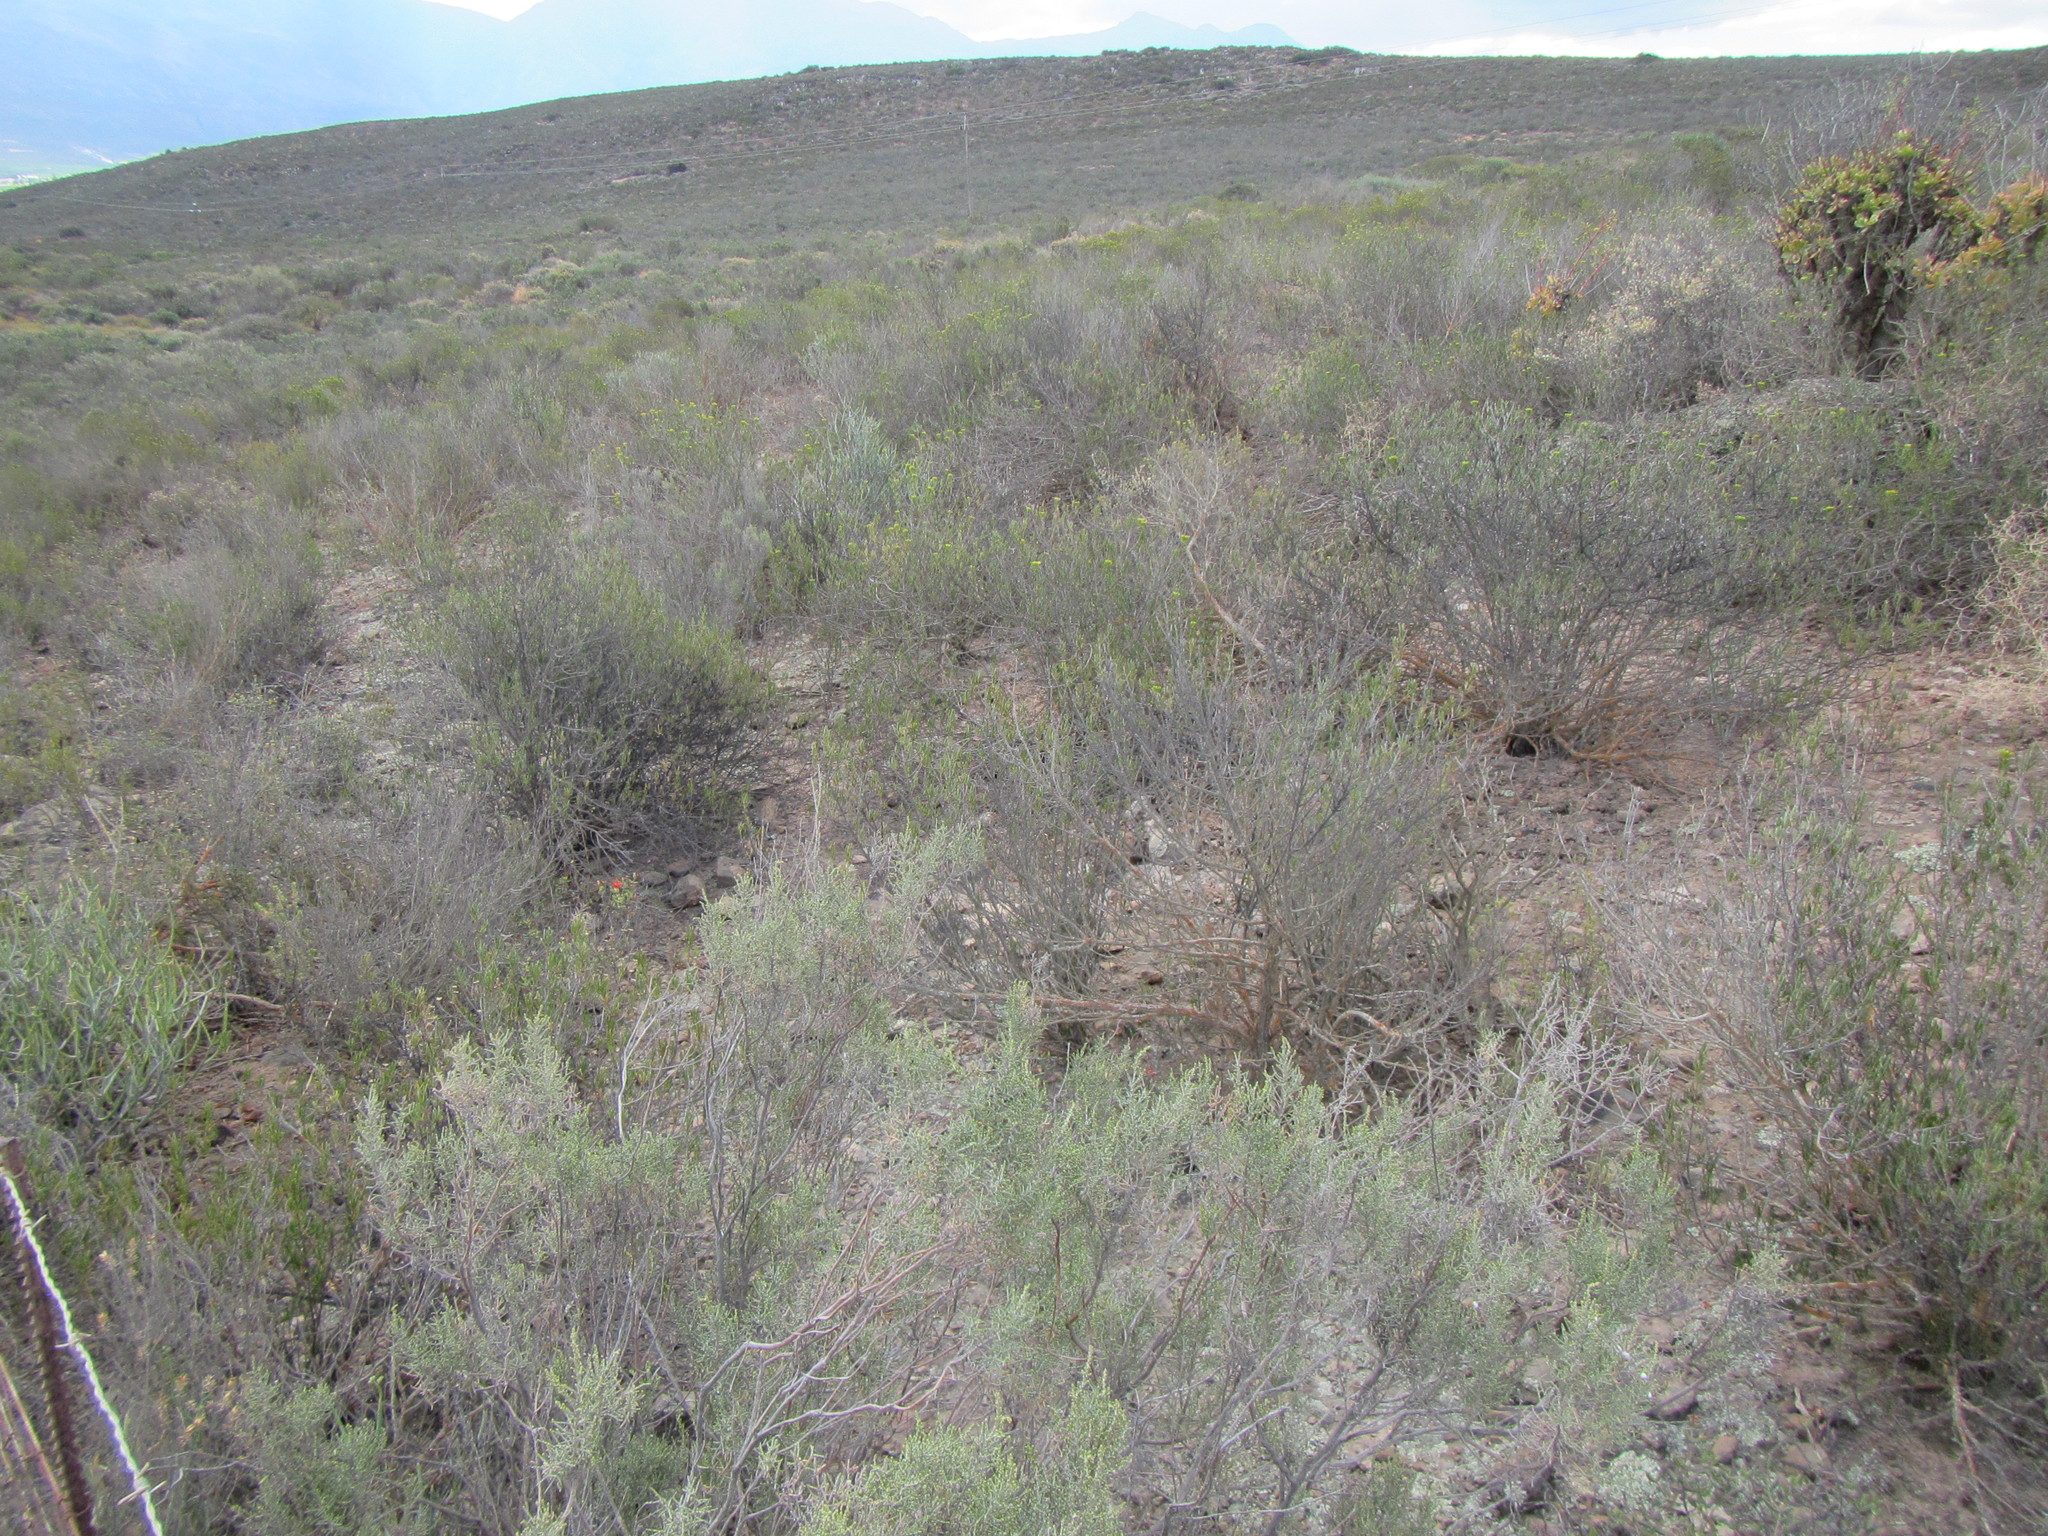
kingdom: Plantae
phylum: Tracheophyta
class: Magnoliopsida
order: Asterales
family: Asteraceae
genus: Dicerothamnus
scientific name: Dicerothamnus rhinocerotis
